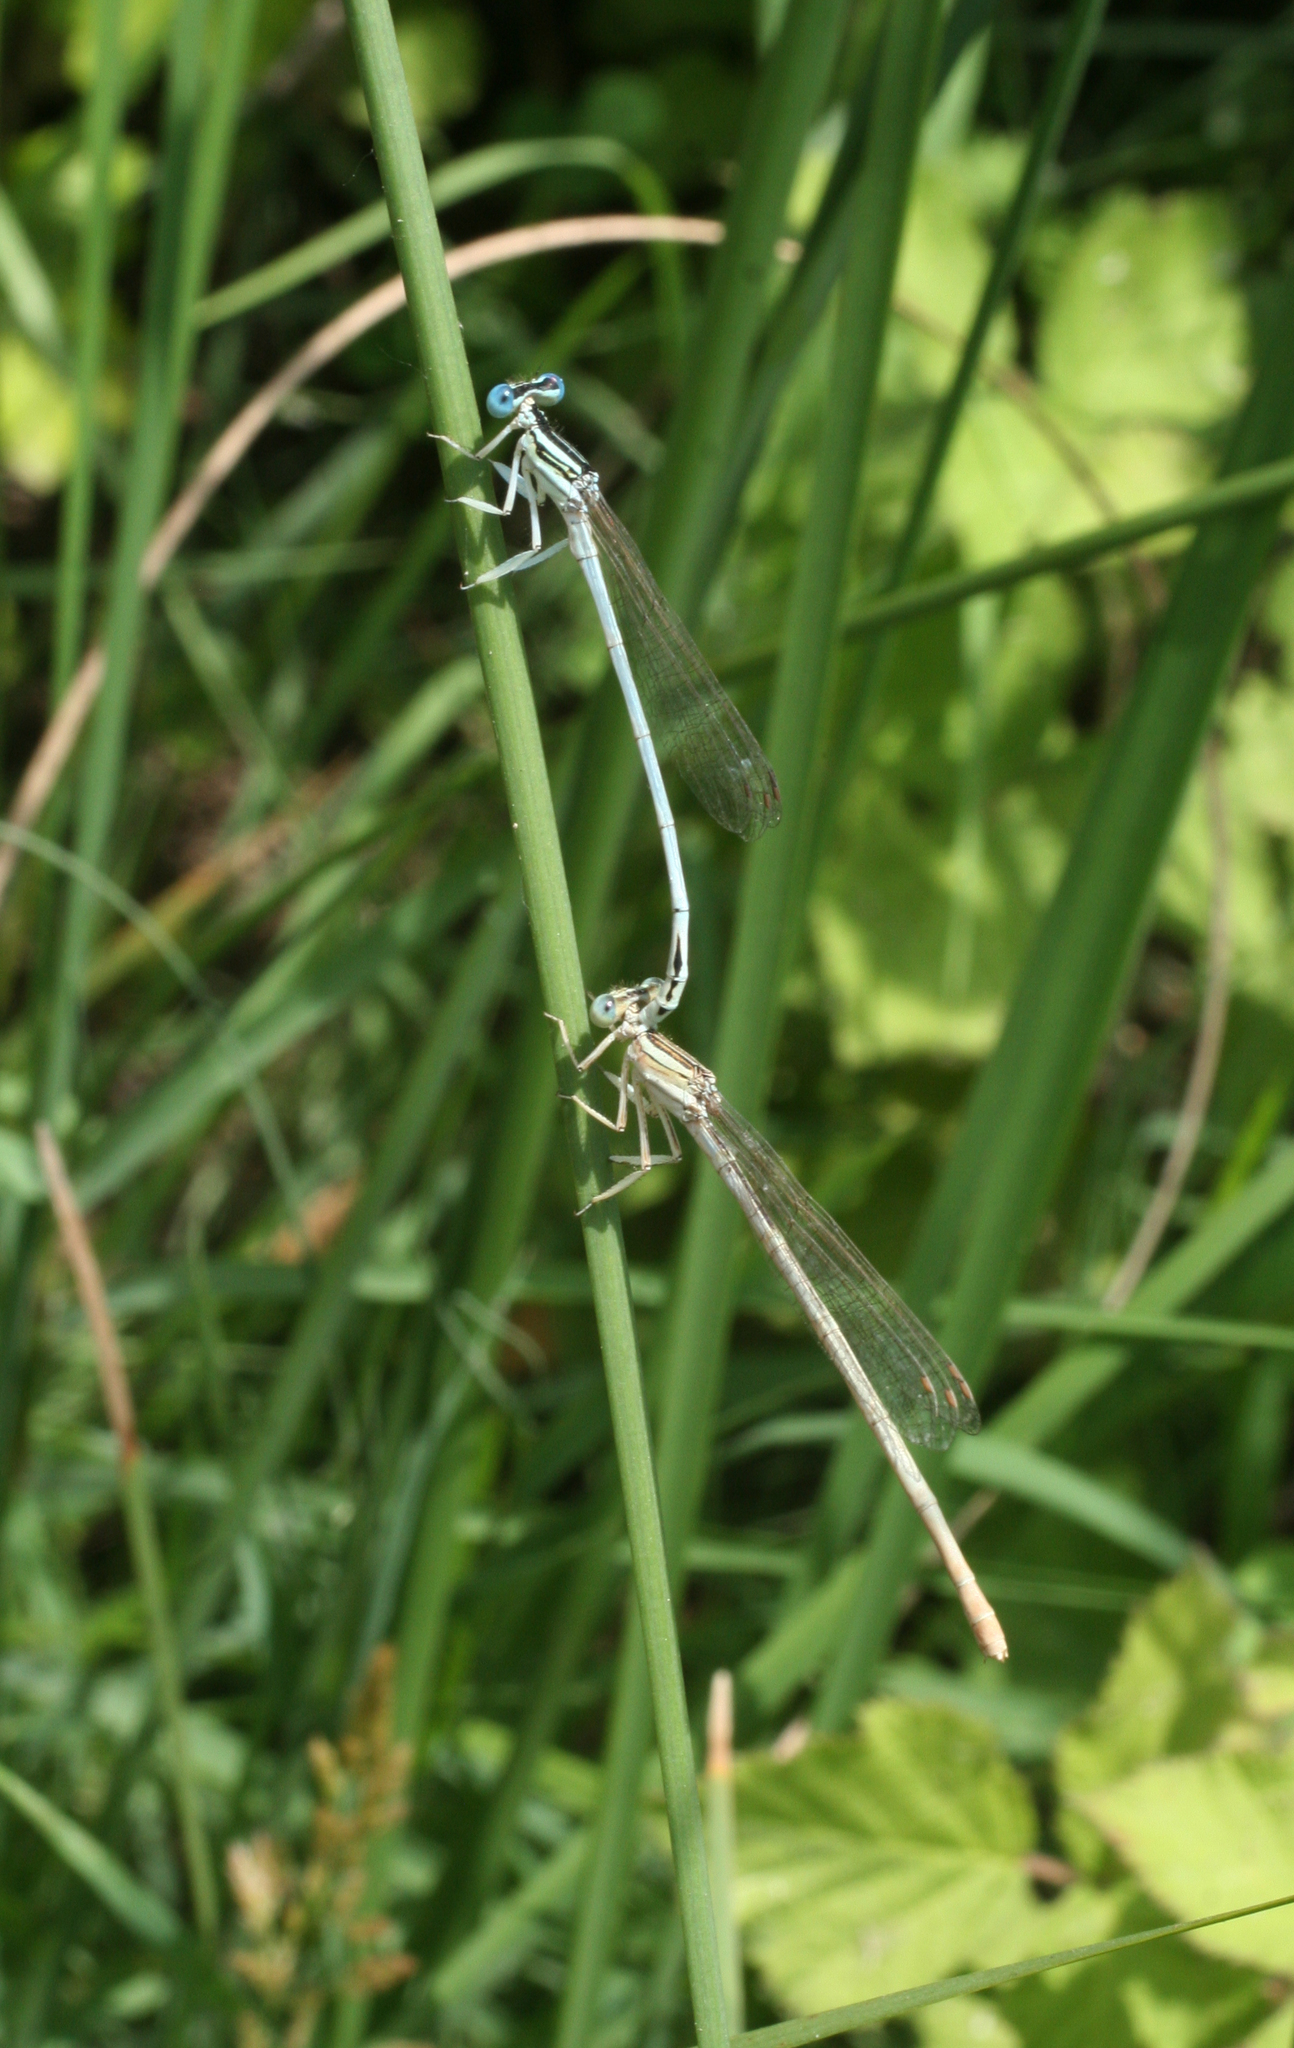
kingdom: Animalia
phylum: Arthropoda
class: Insecta
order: Odonata
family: Platycnemididae
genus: Platycnemis
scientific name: Platycnemis dealbata
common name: Ivory featherleg
